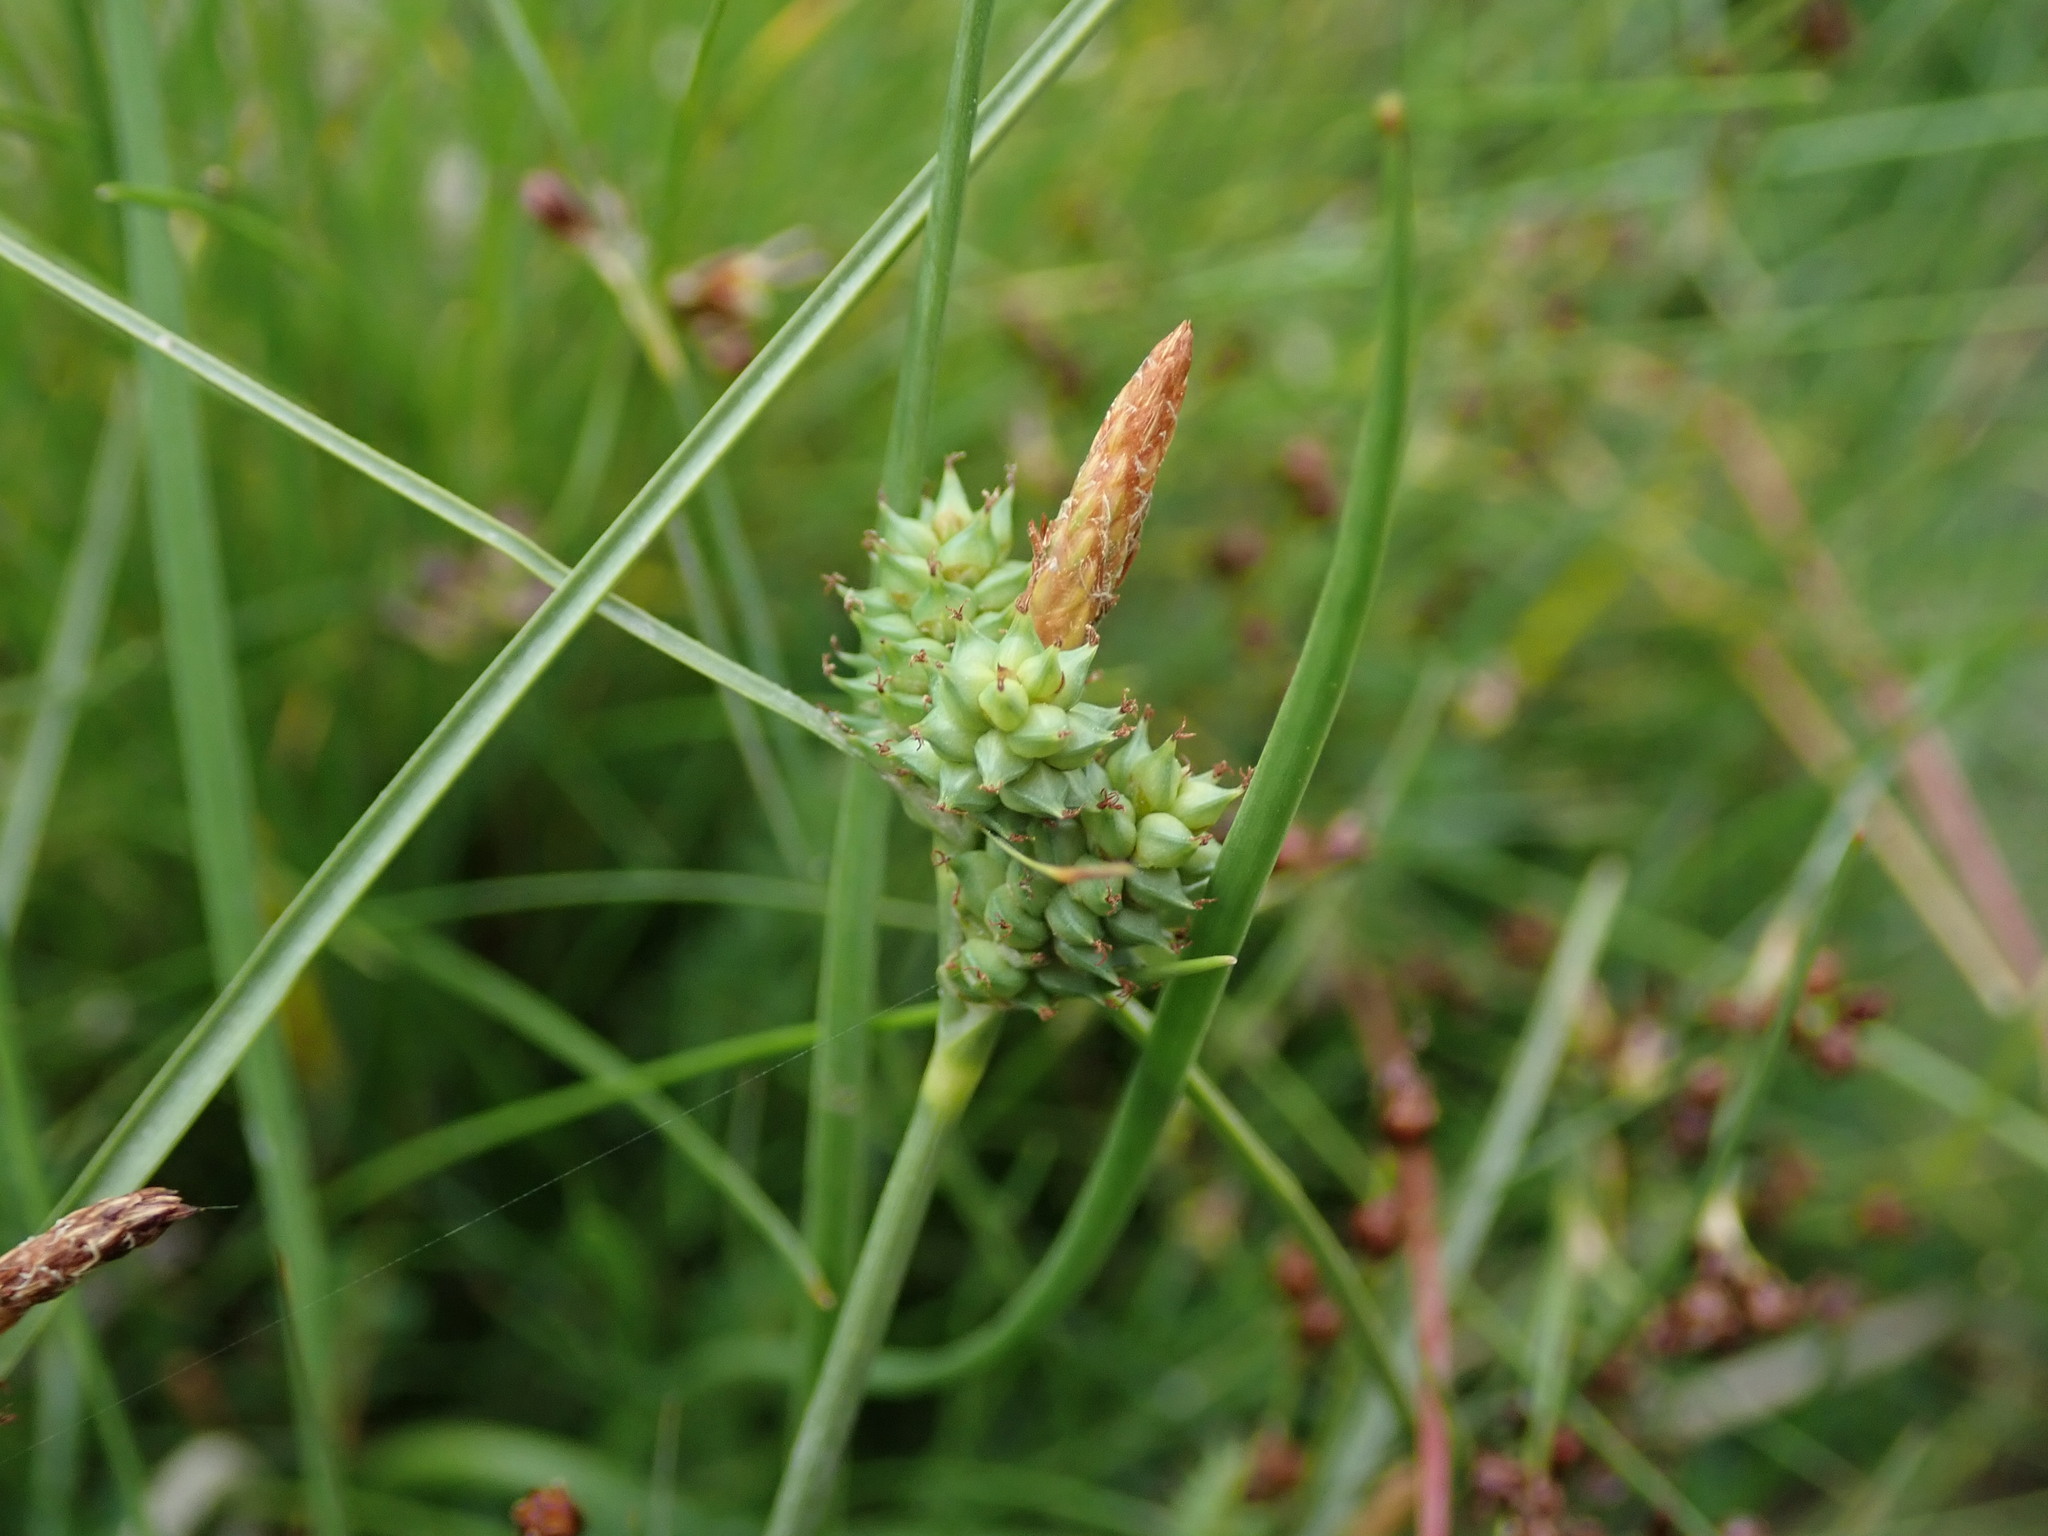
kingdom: Plantae
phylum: Tracheophyta
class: Liliopsida
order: Poales
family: Cyperaceae
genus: Carex
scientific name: Carex extensa
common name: Long-bracted sedge
